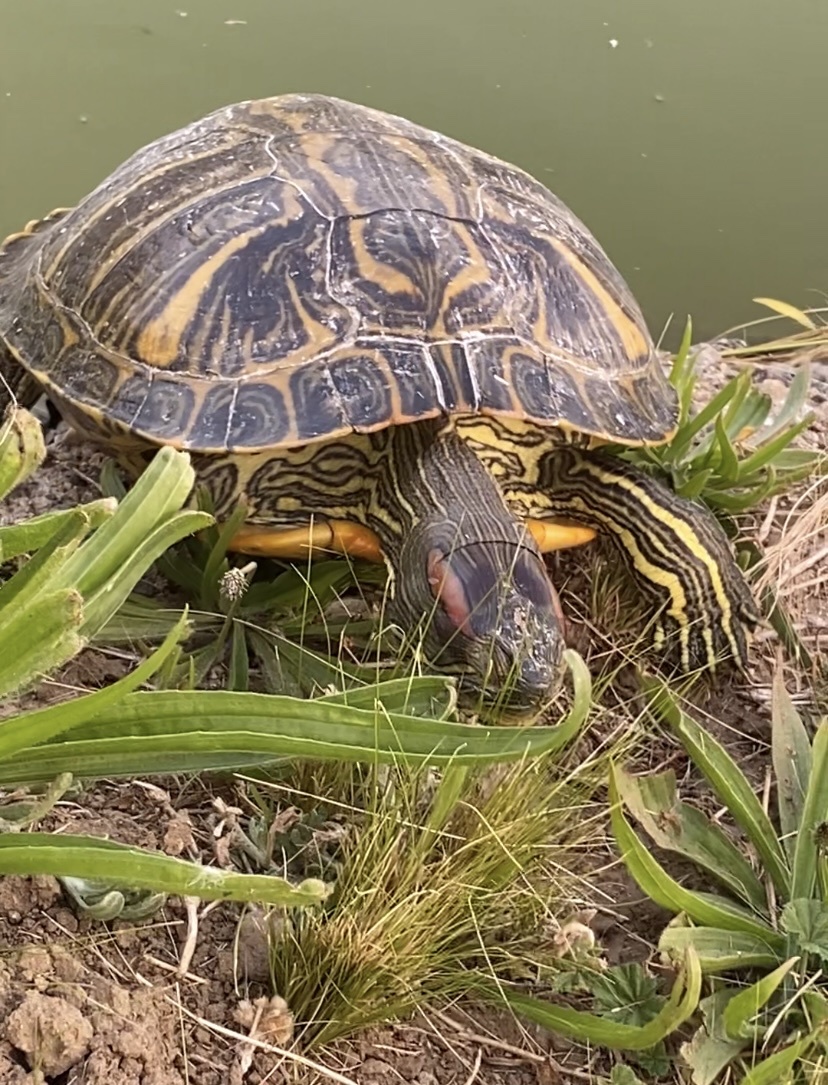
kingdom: Animalia
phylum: Chordata
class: Testudines
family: Emydidae
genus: Trachemys
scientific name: Trachemys scripta
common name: Slider
